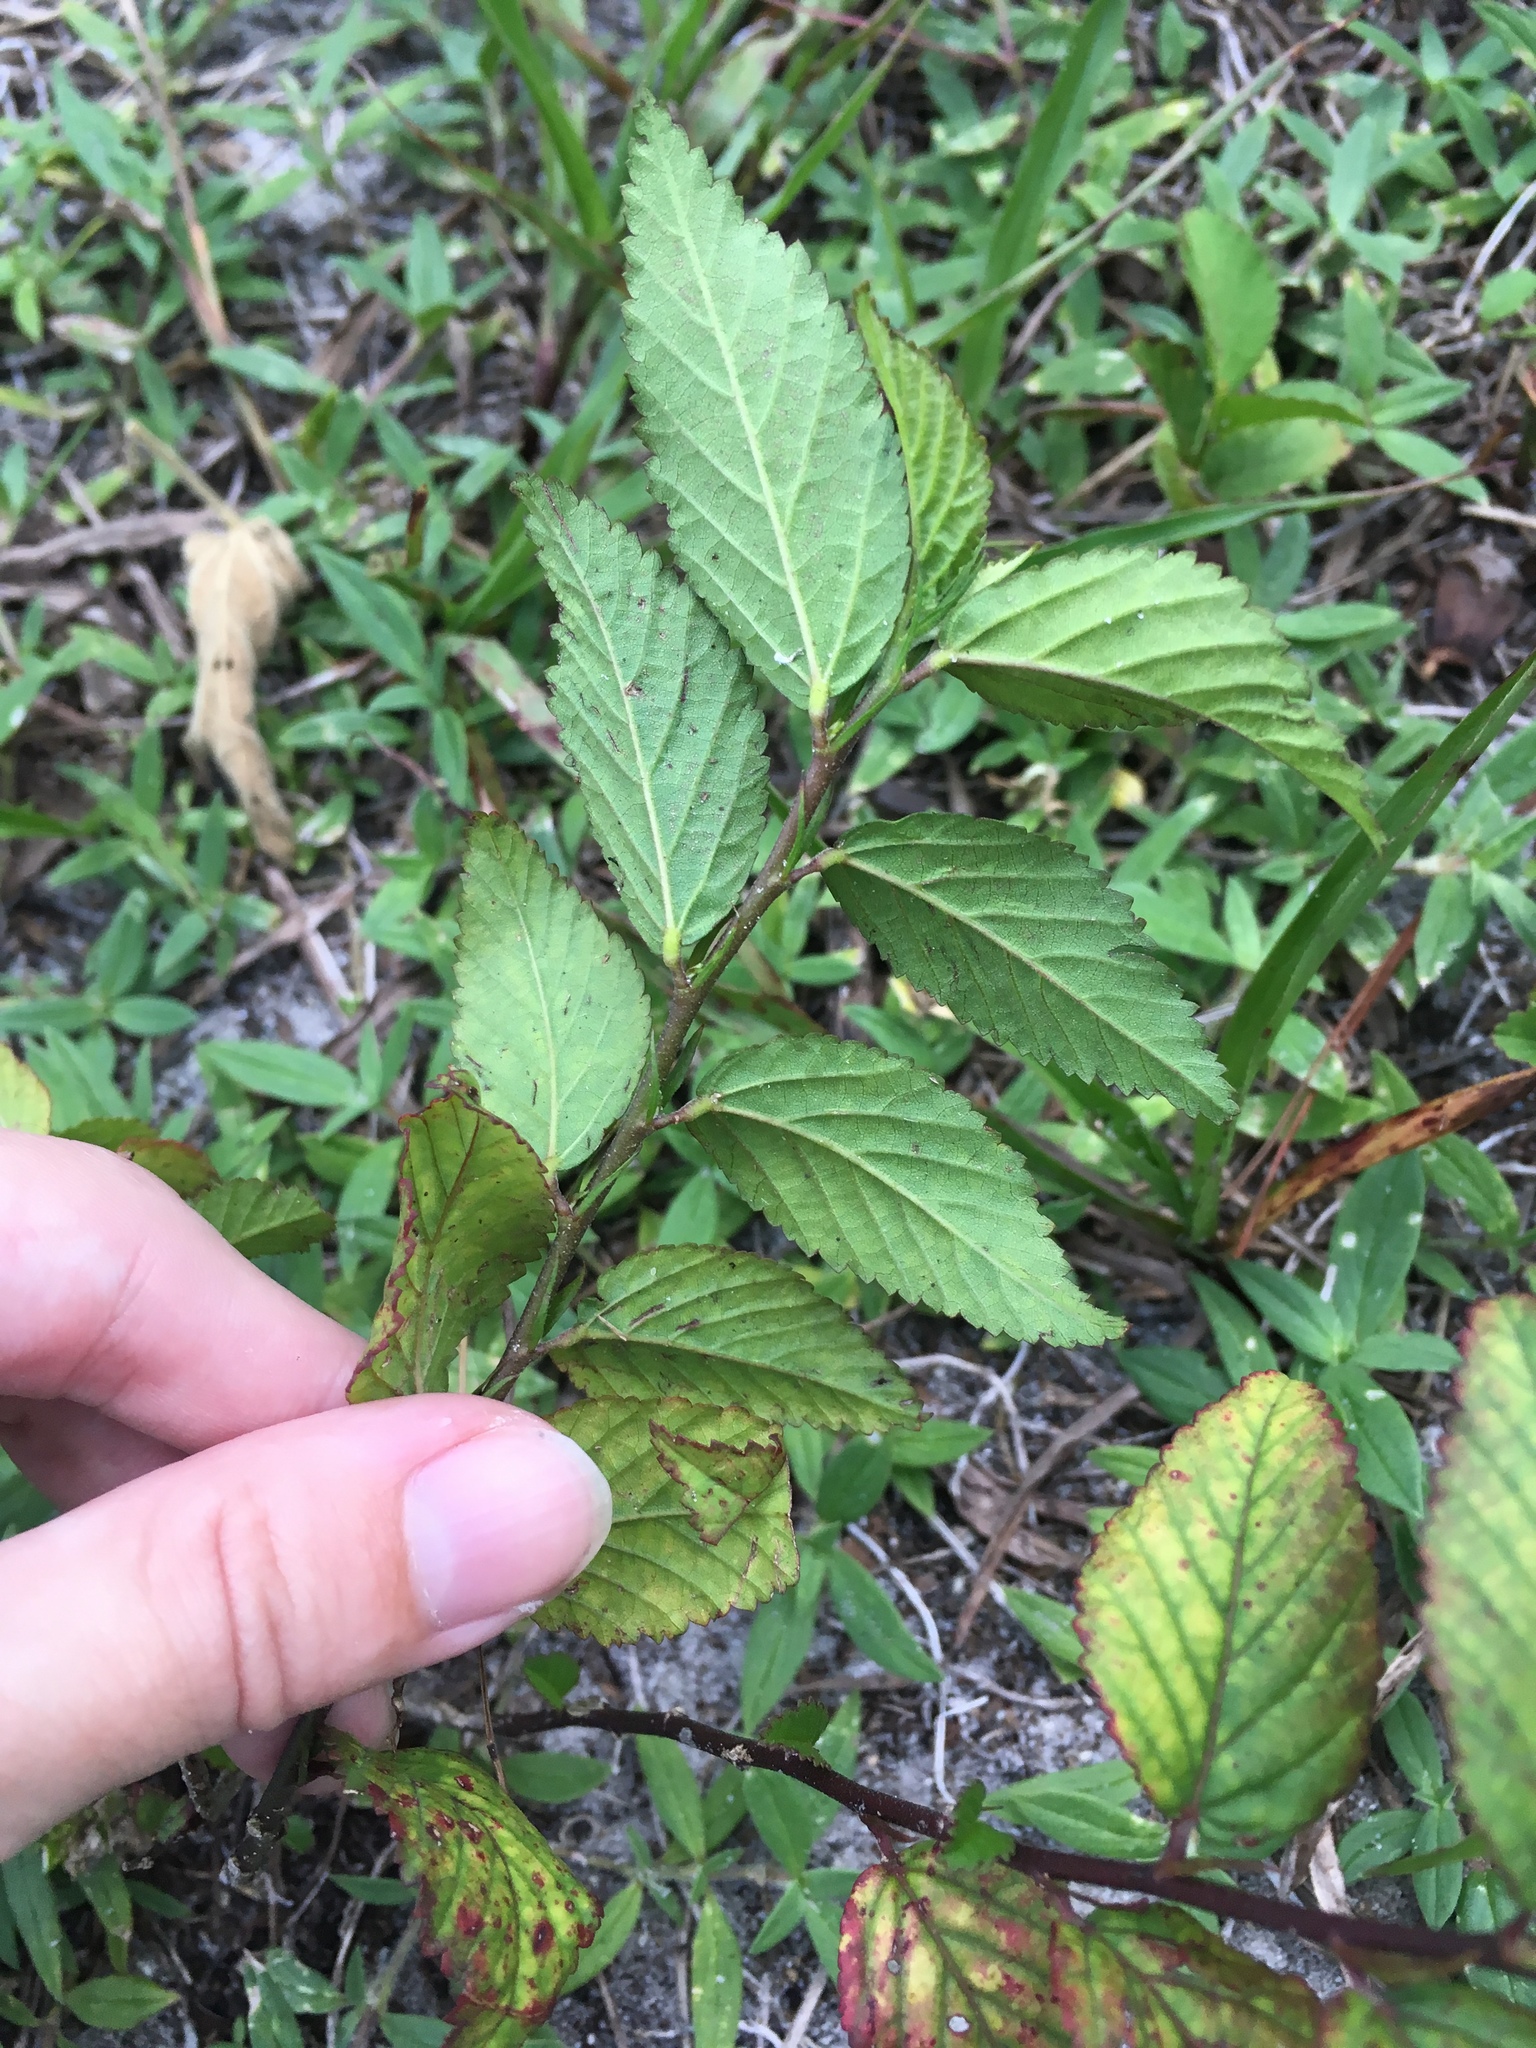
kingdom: Plantae
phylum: Tracheophyta
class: Magnoliopsida
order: Malvales
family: Malvaceae
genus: Sida
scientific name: Sida ulmifolia
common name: Broom weed
